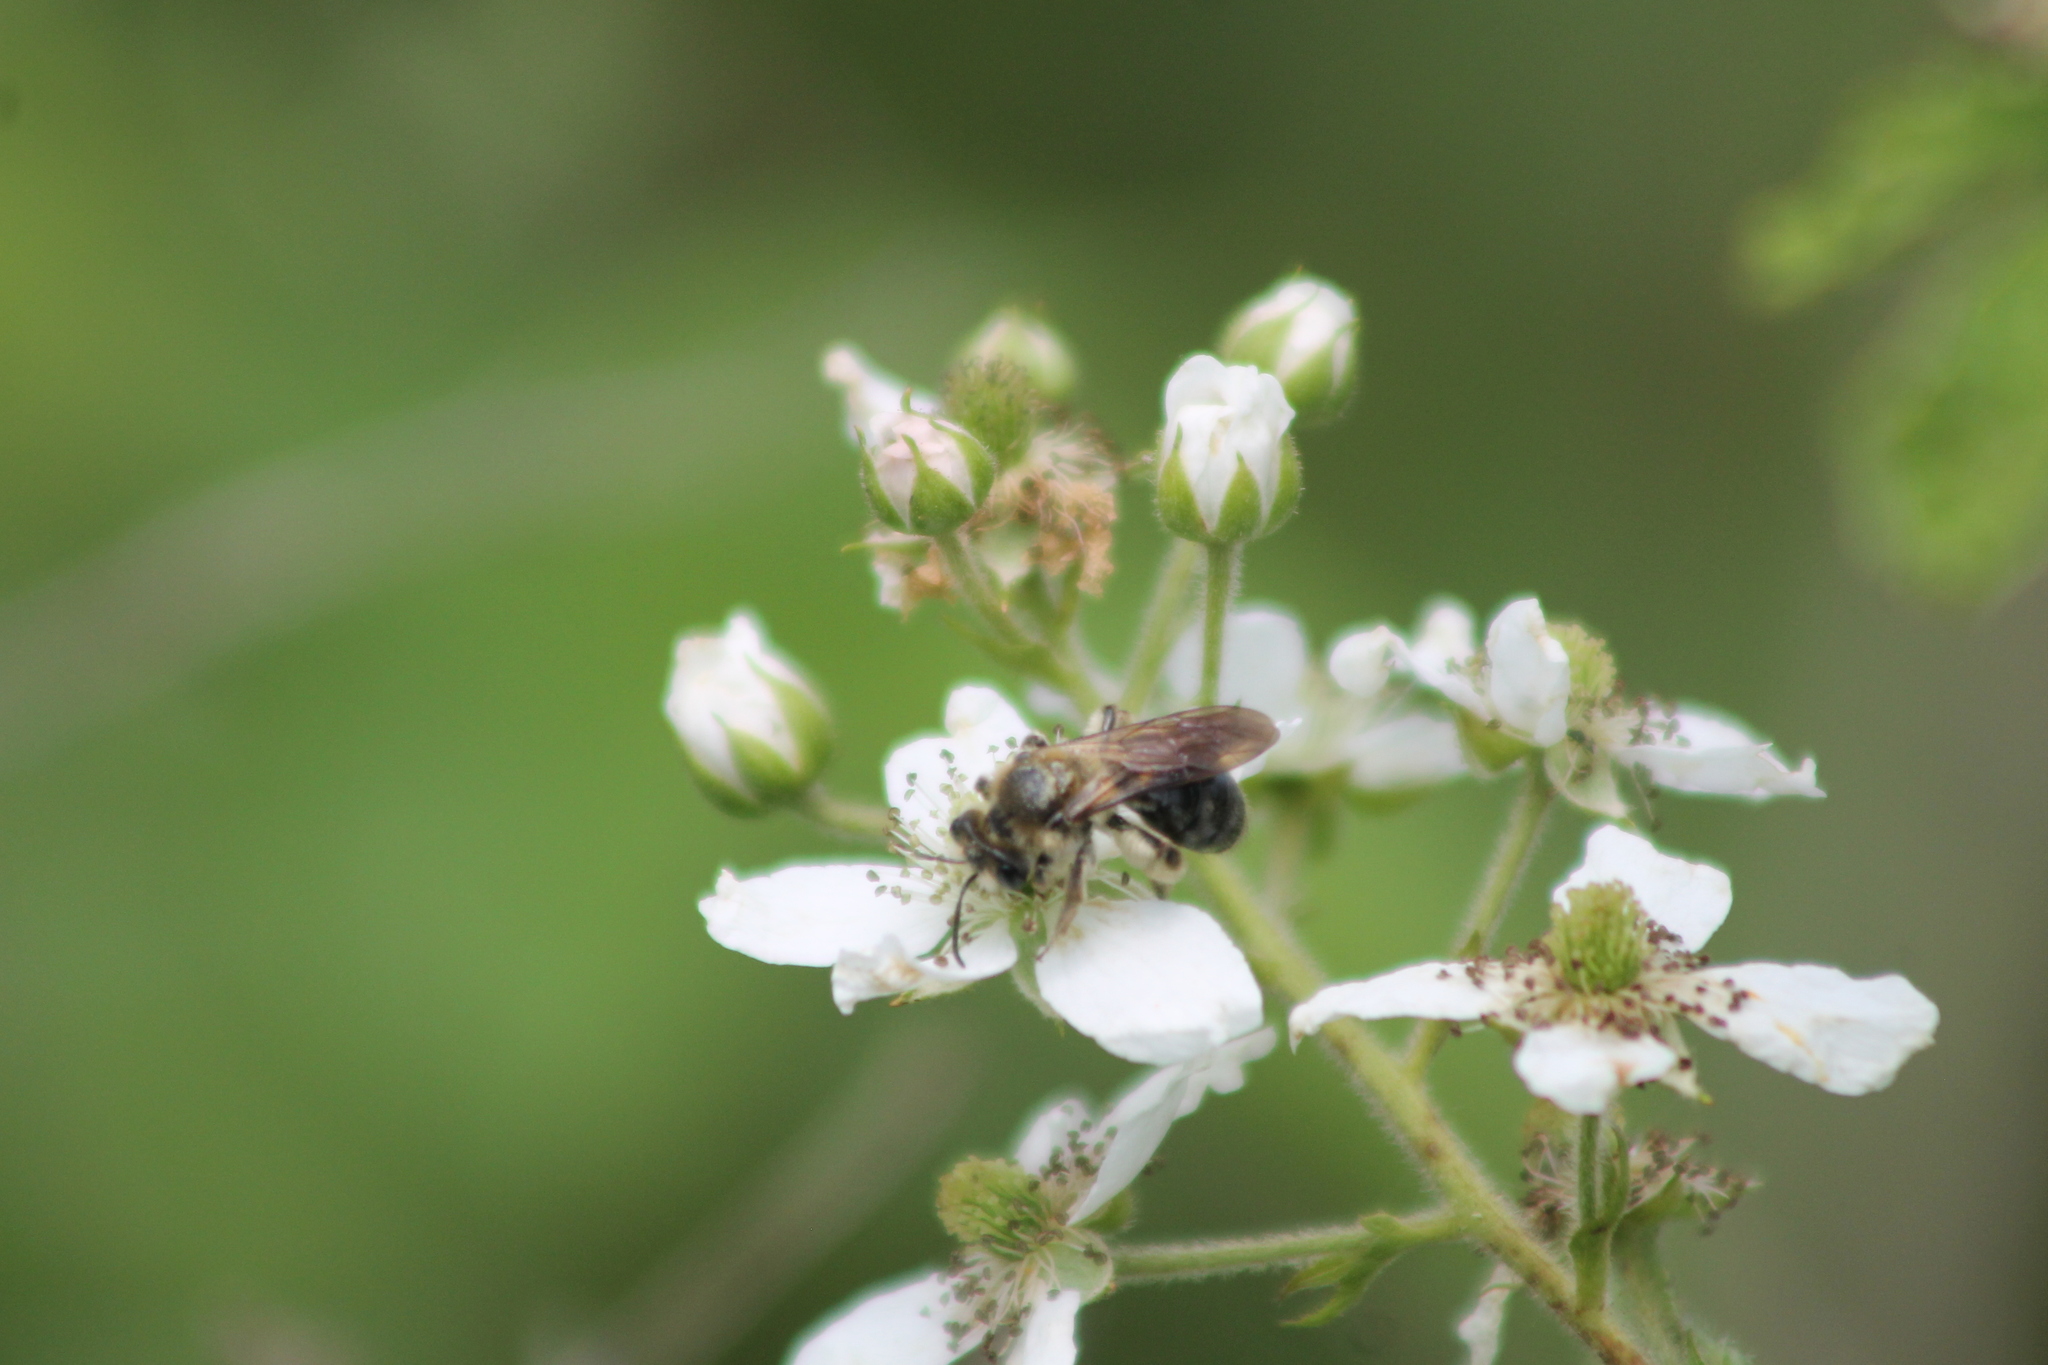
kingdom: Animalia
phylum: Arthropoda
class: Insecta
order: Hymenoptera
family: Andrenidae
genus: Andrena
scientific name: Andrena
